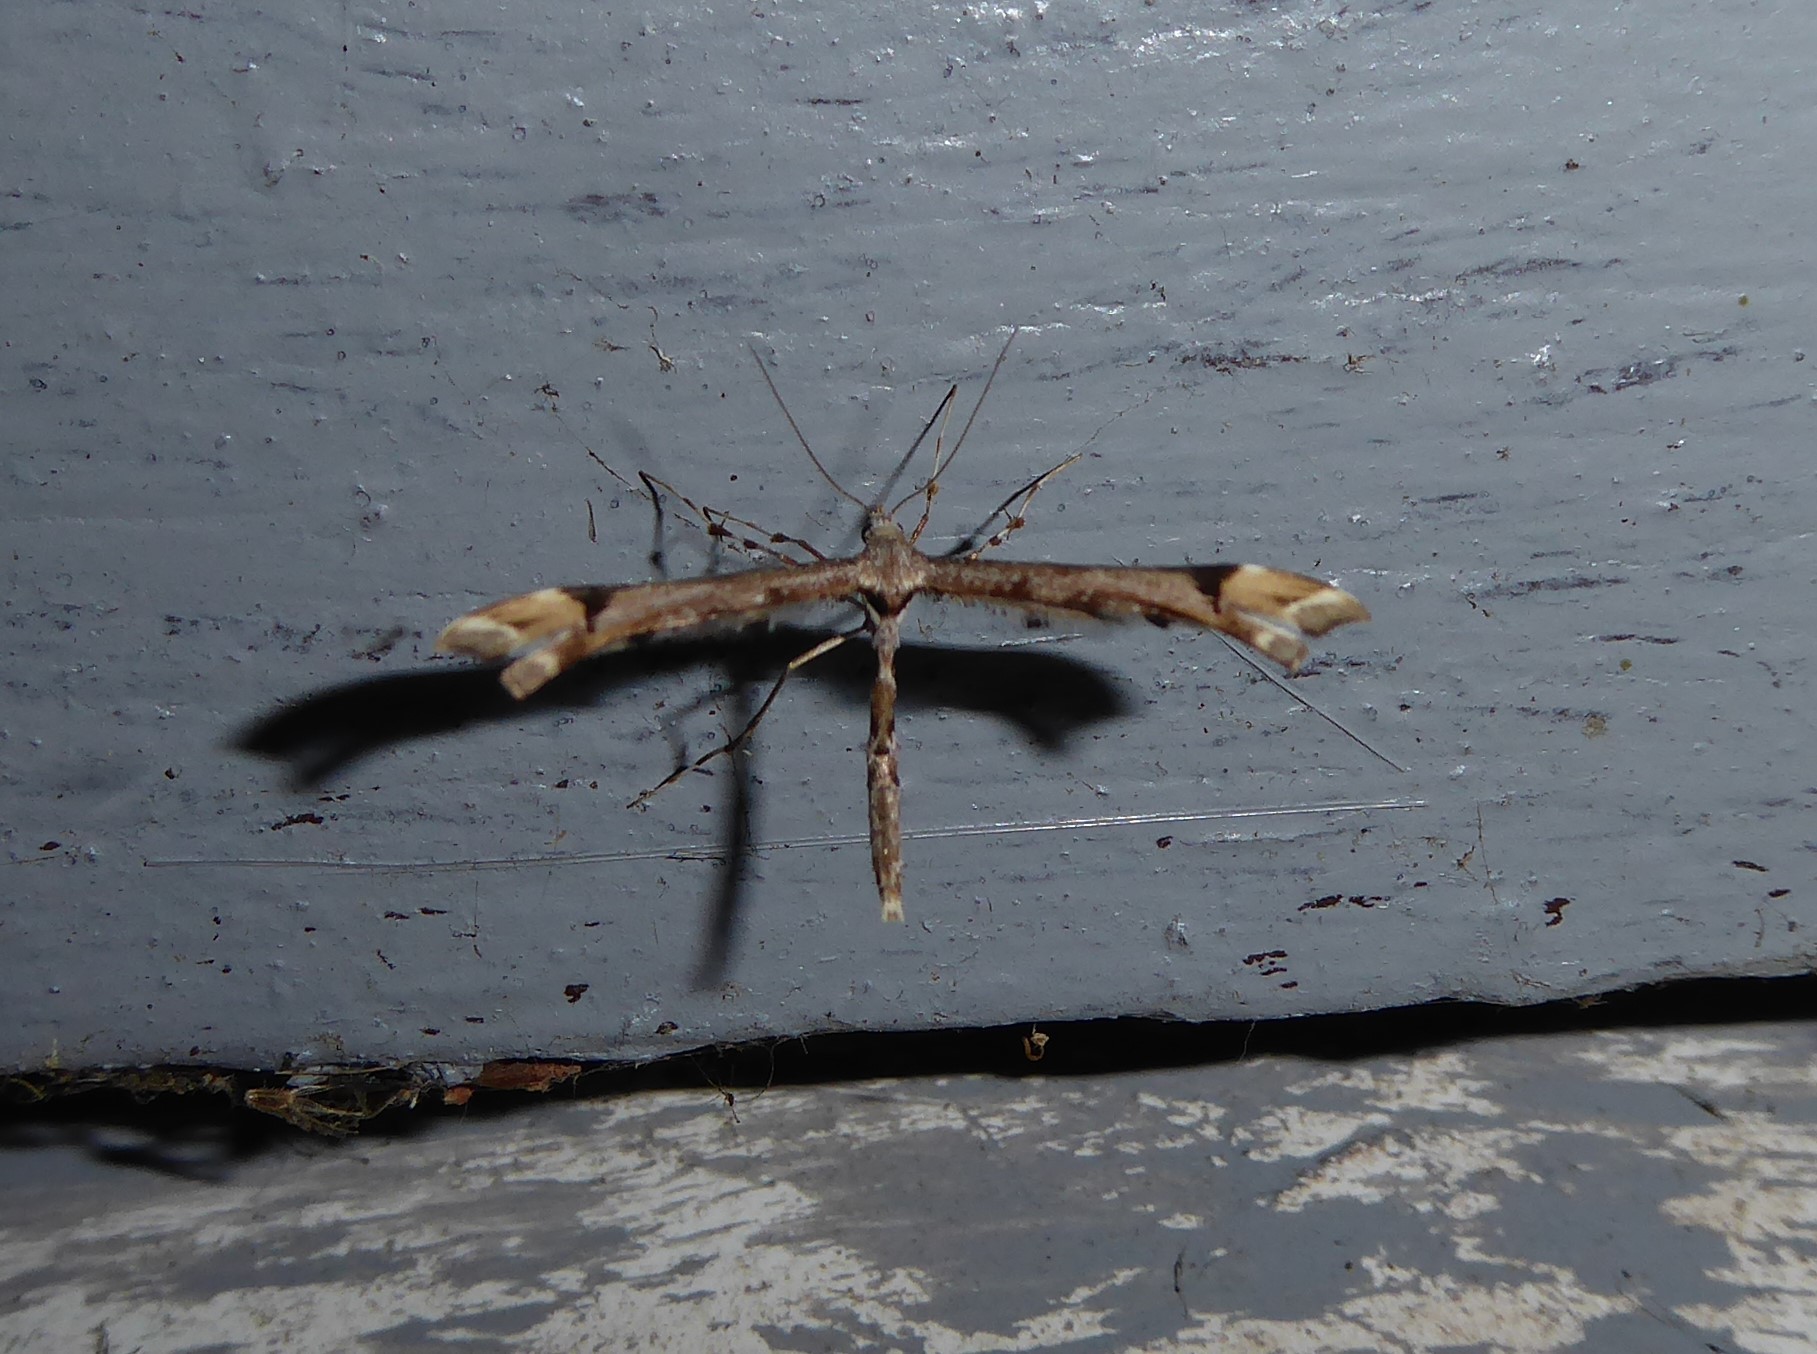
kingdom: Animalia
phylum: Arthropoda
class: Insecta
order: Lepidoptera
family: Pterophoridae
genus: Amblyptilia
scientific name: Amblyptilia falcatalis
